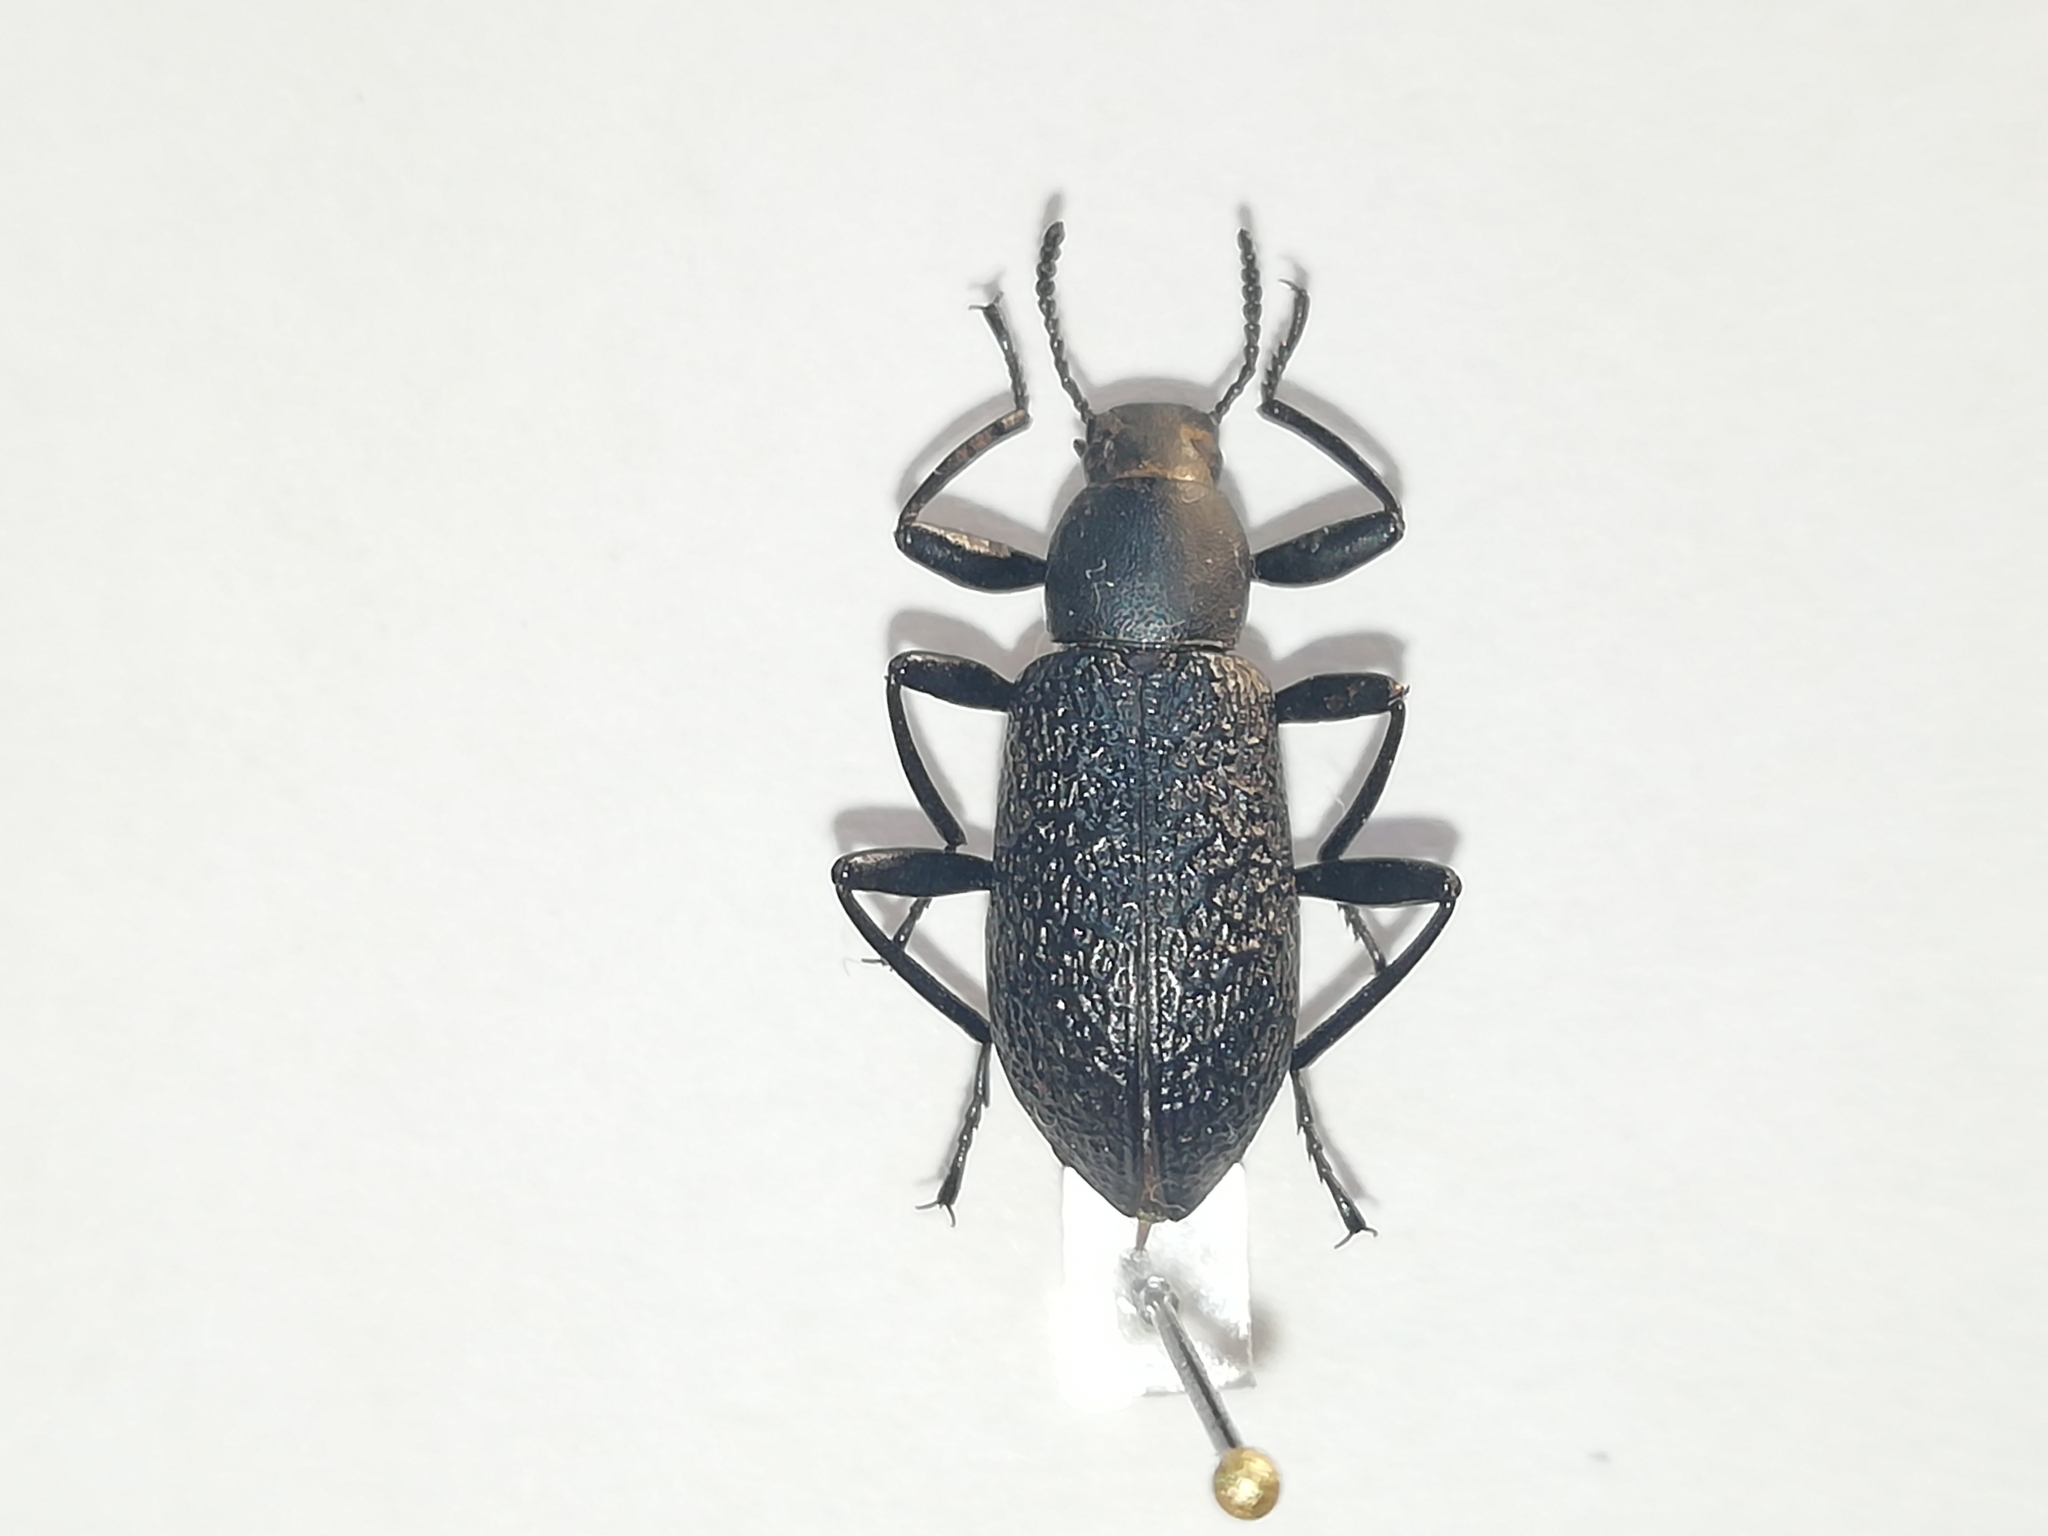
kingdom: Animalia
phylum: Arthropoda
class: Insecta
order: Coleoptera
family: Tenebrionidae
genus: Upis
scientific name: Upis ceramboides
